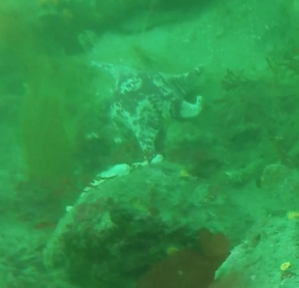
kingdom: Animalia
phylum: Echinodermata
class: Asteroidea
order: Valvatida
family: Asterinidae
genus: Patiria
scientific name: Patiria miniata
